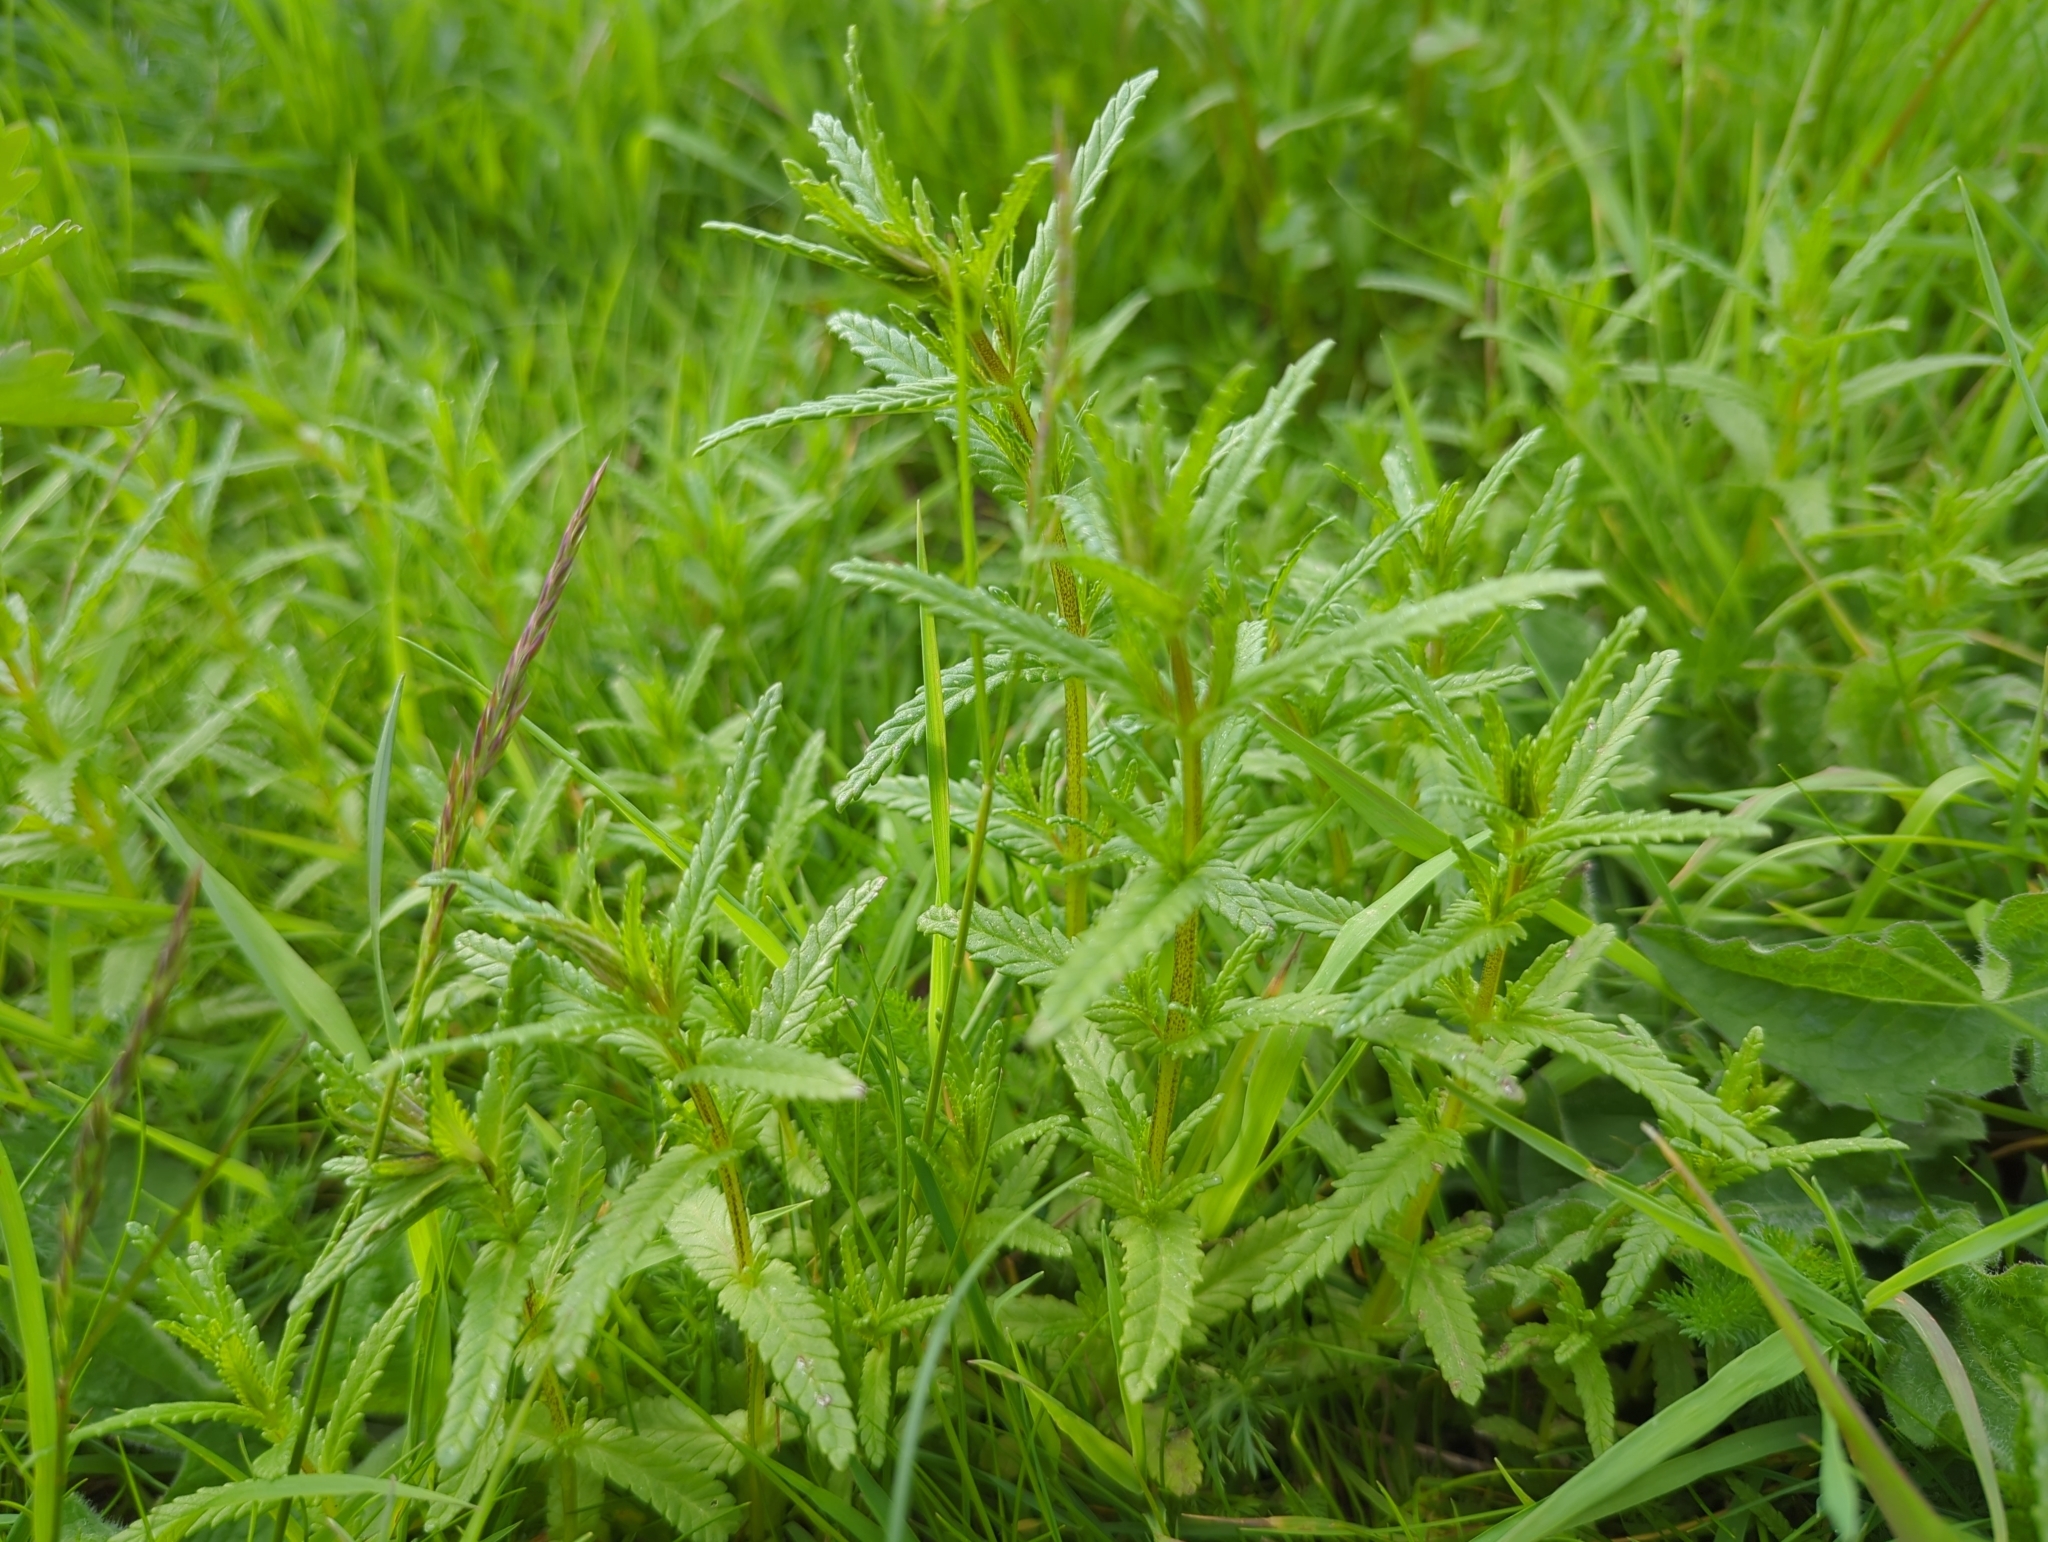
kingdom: Plantae
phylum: Tracheophyta
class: Magnoliopsida
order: Lamiales
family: Orobanchaceae
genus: Rhinanthus
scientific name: Rhinanthus minor
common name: Yellow-rattle
